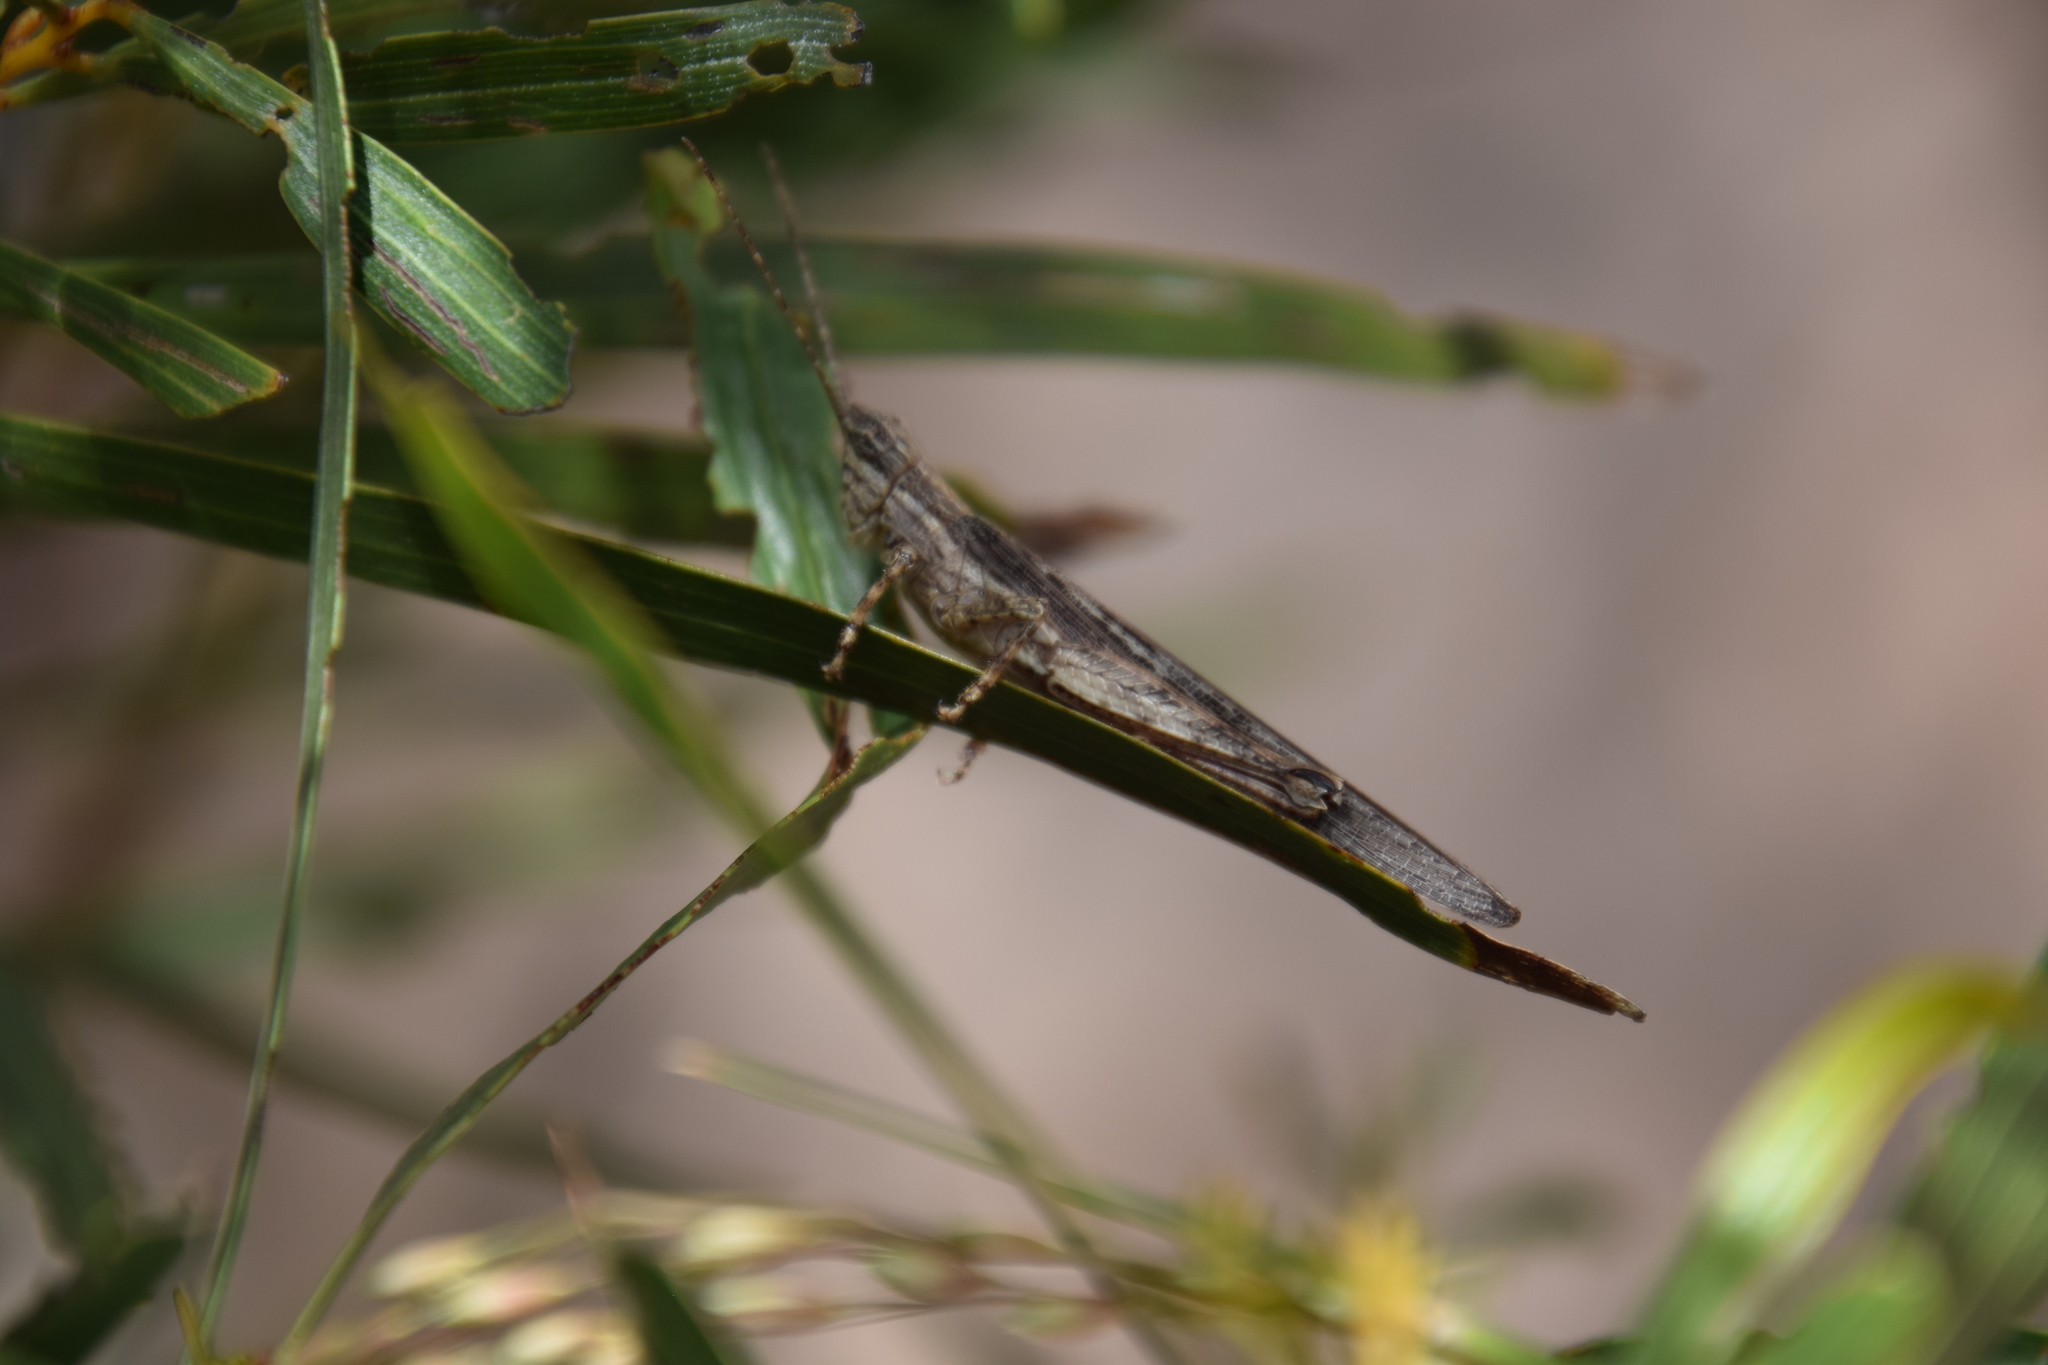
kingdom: Animalia
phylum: Arthropoda
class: Insecta
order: Orthoptera
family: Acrididae
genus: Coryphistes
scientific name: Coryphistes ruricola
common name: Bark-mimicking grasshopper
